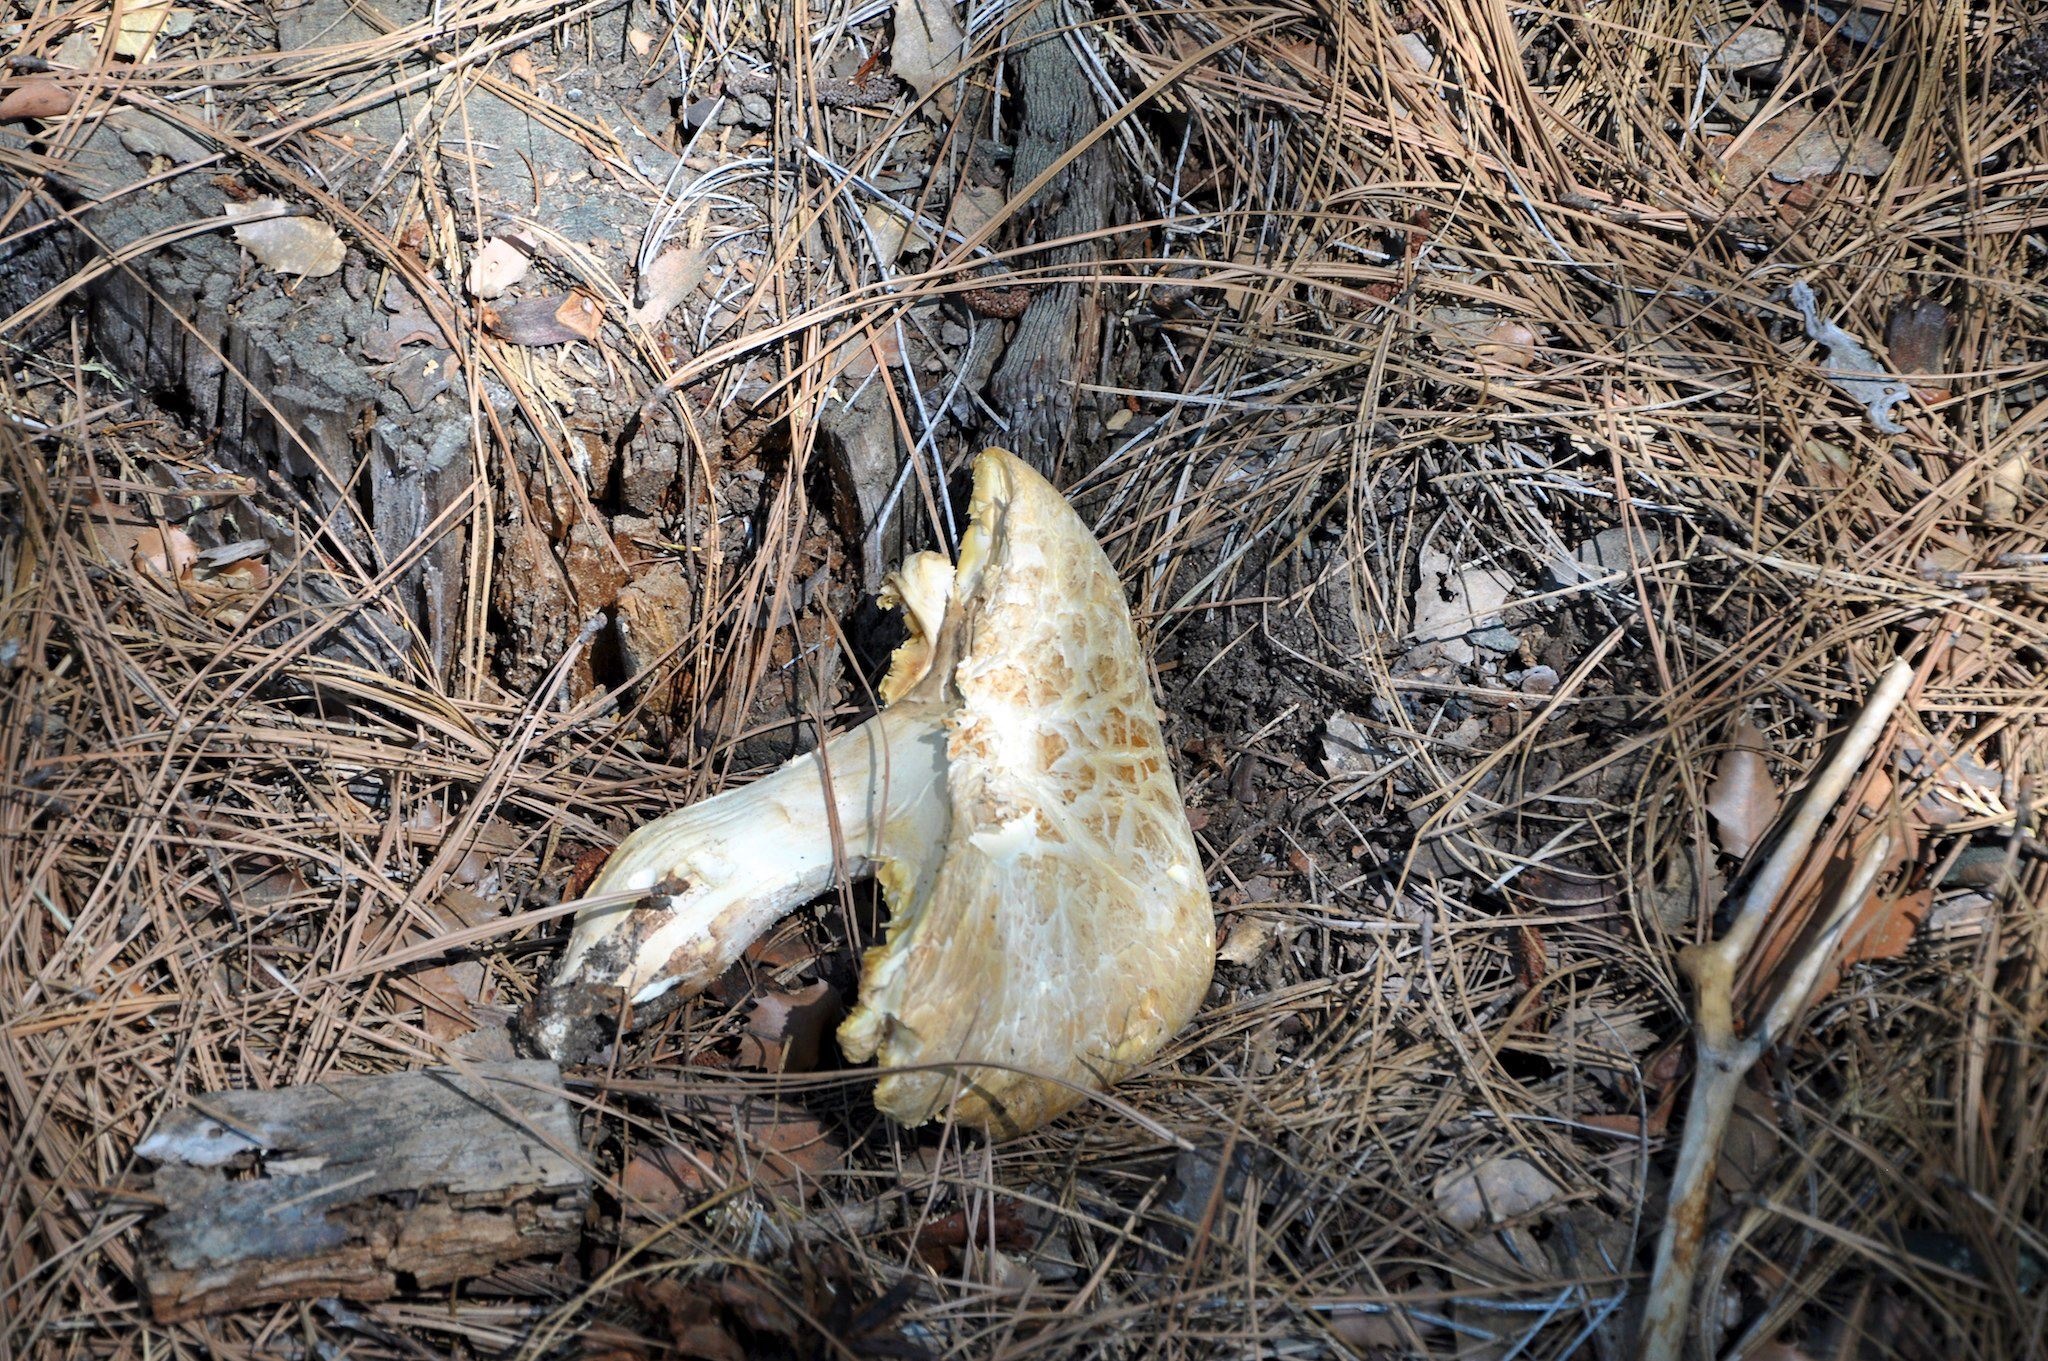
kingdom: Fungi
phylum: Basidiomycota
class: Agaricomycetes
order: Gloeophyllales
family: Gloeophyllaceae
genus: Neolentinus
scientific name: Neolentinus ponderosus
